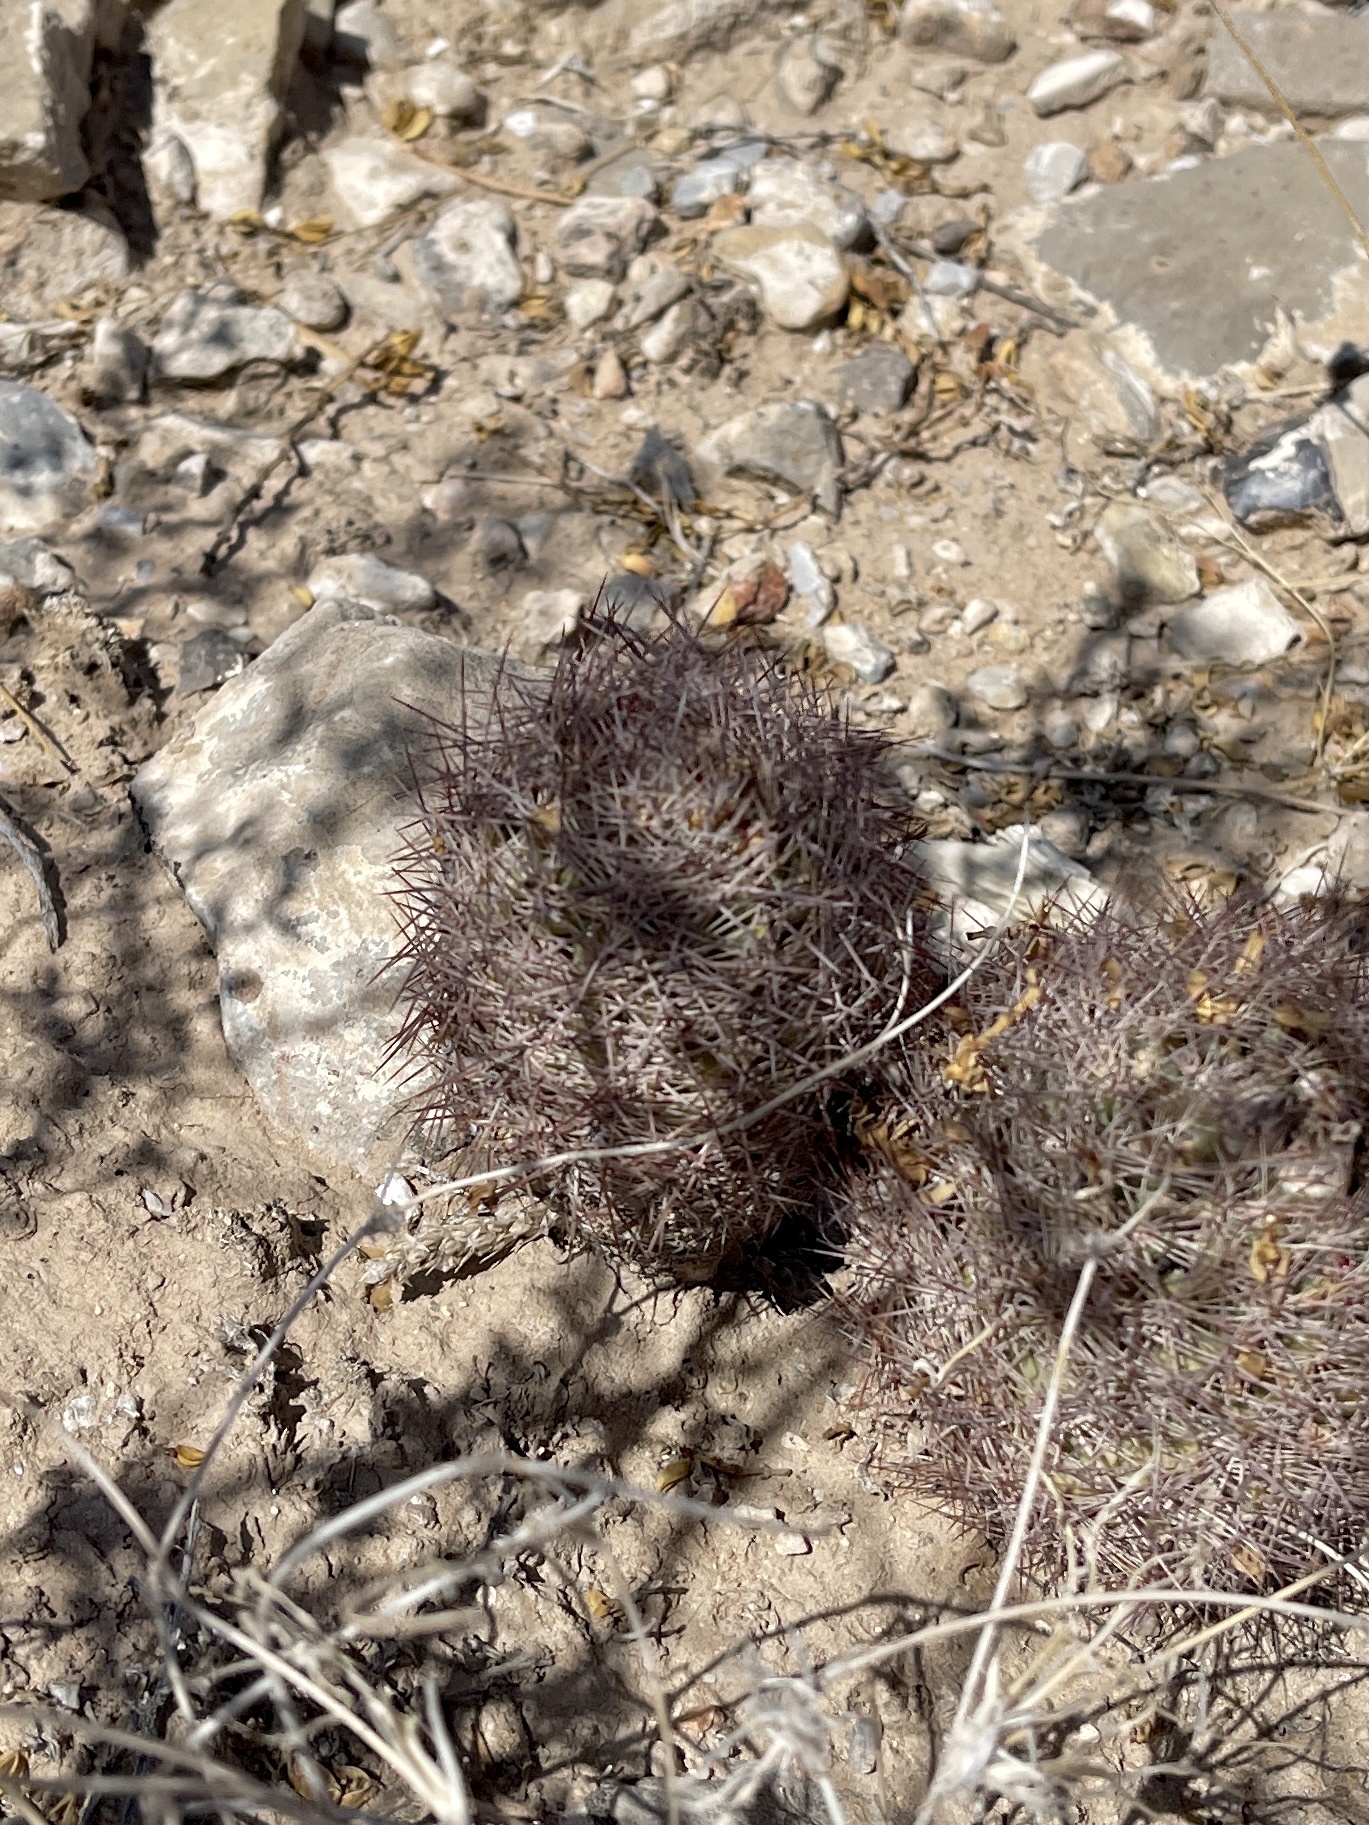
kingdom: Plantae
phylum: Tracheophyta
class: Magnoliopsida
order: Caryophyllales
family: Cactaceae
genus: Sclerocactus
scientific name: Sclerocactus intertextus
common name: White fish-hook cactus
